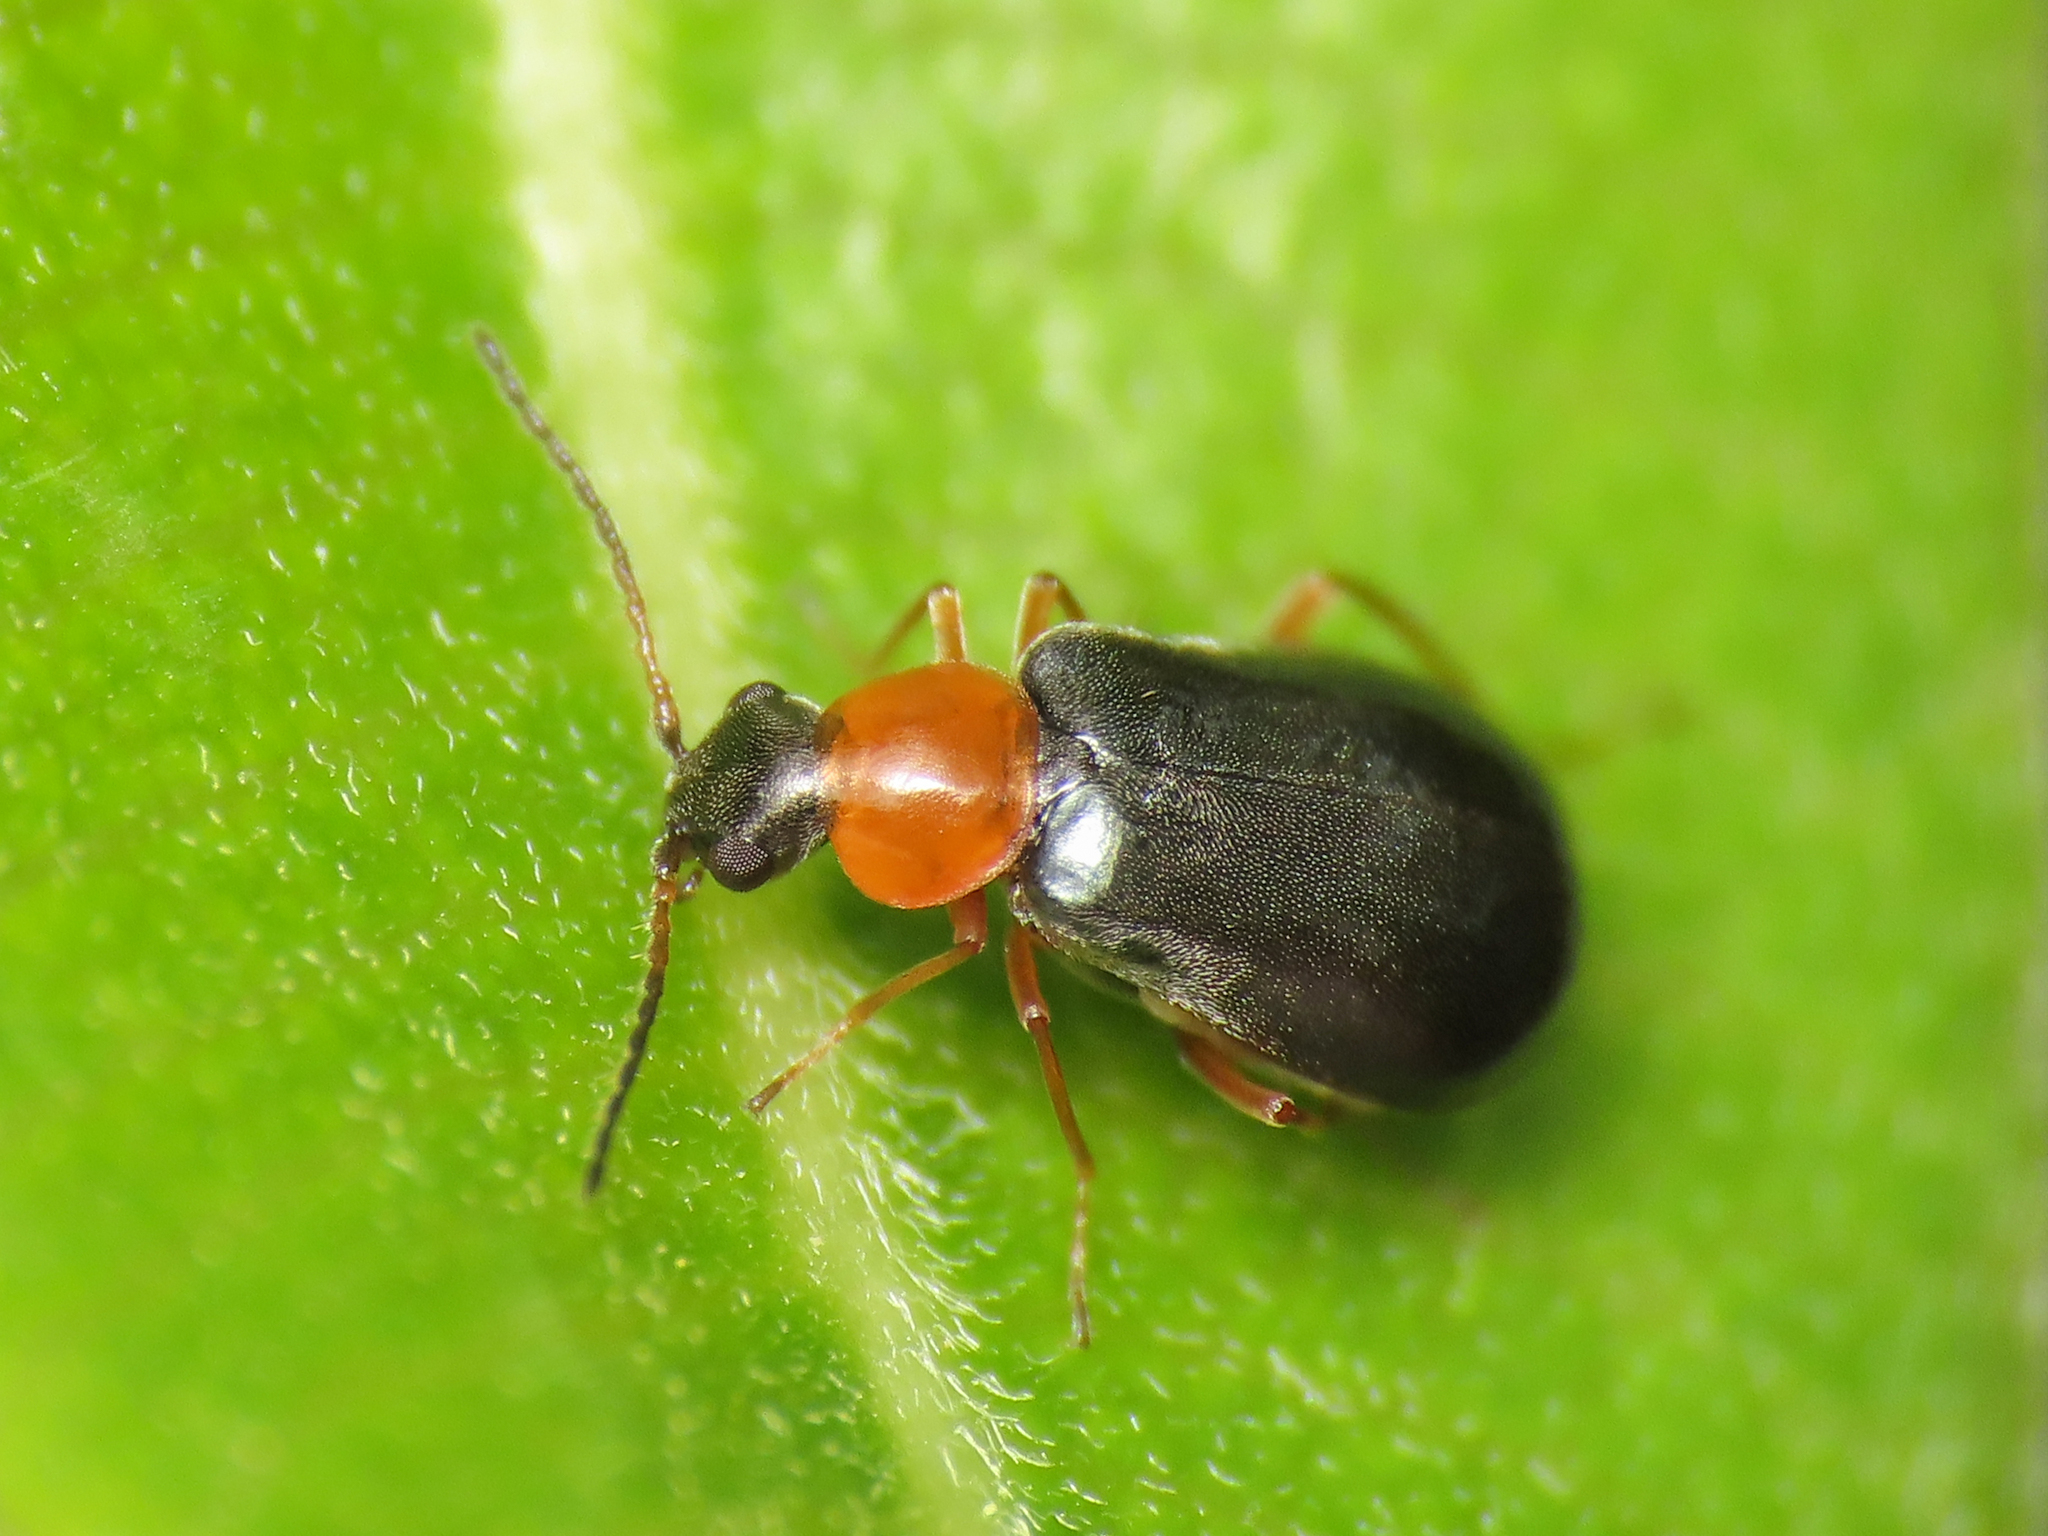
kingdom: Animalia
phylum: Arthropoda
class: Insecta
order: Coleoptera
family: Melyridae
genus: Hypebaeus
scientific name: Hypebaeus flavicollis
